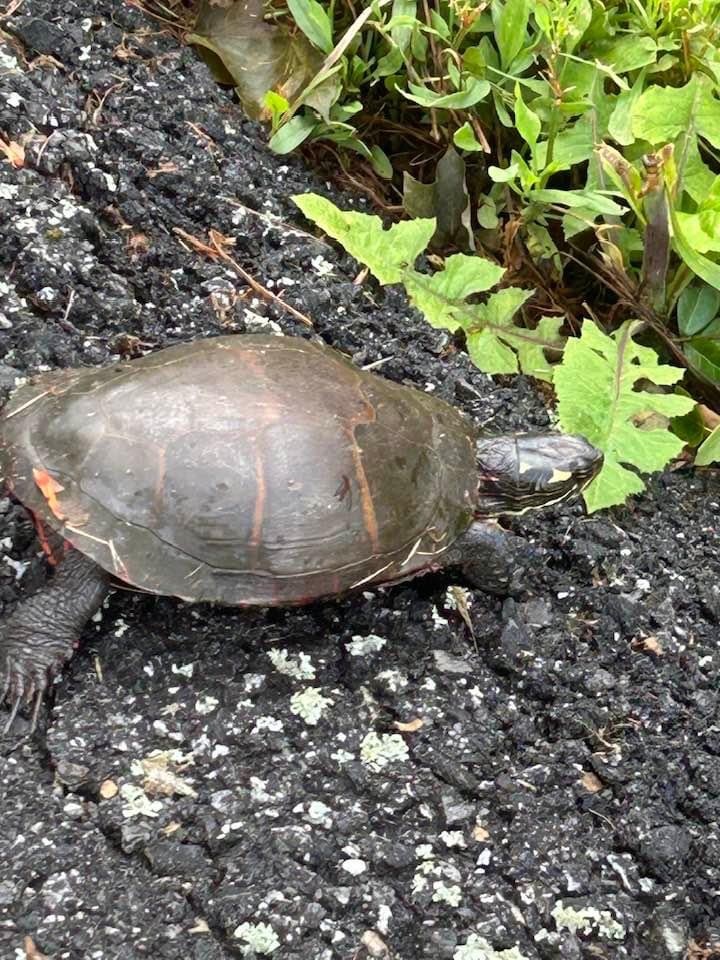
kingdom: Animalia
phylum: Chordata
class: Testudines
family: Emydidae
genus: Chrysemys
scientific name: Chrysemys picta
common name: Painted turtle
